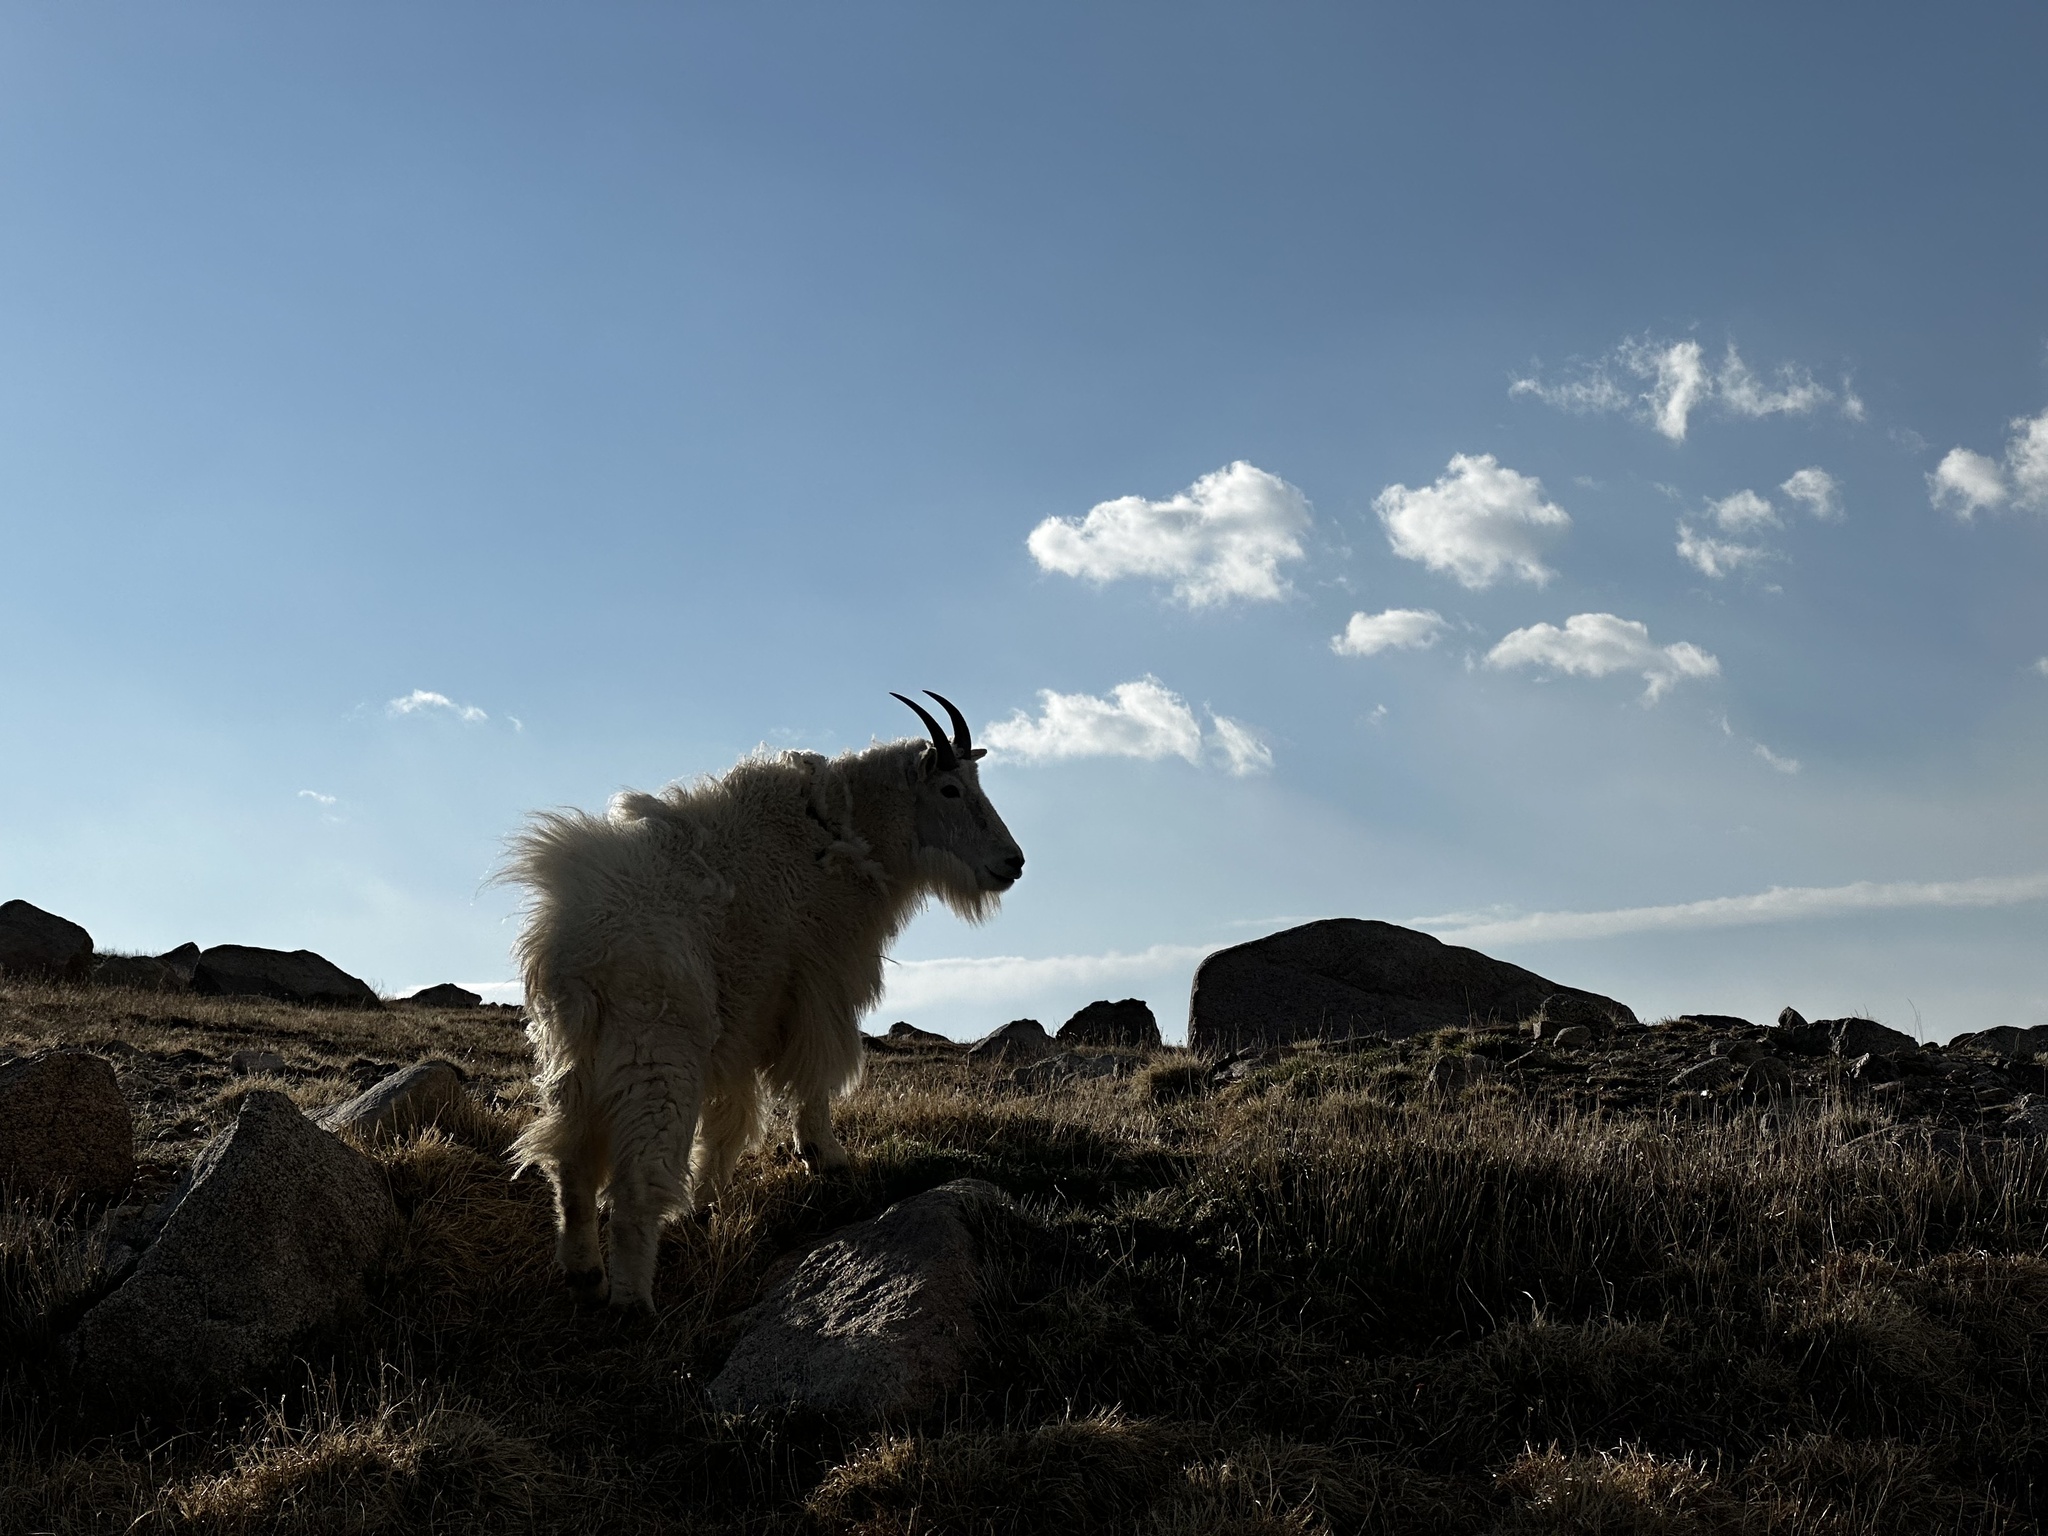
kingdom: Animalia
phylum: Chordata
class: Mammalia
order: Artiodactyla
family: Bovidae
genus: Oreamnos
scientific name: Oreamnos americanus
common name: Mountain goat
